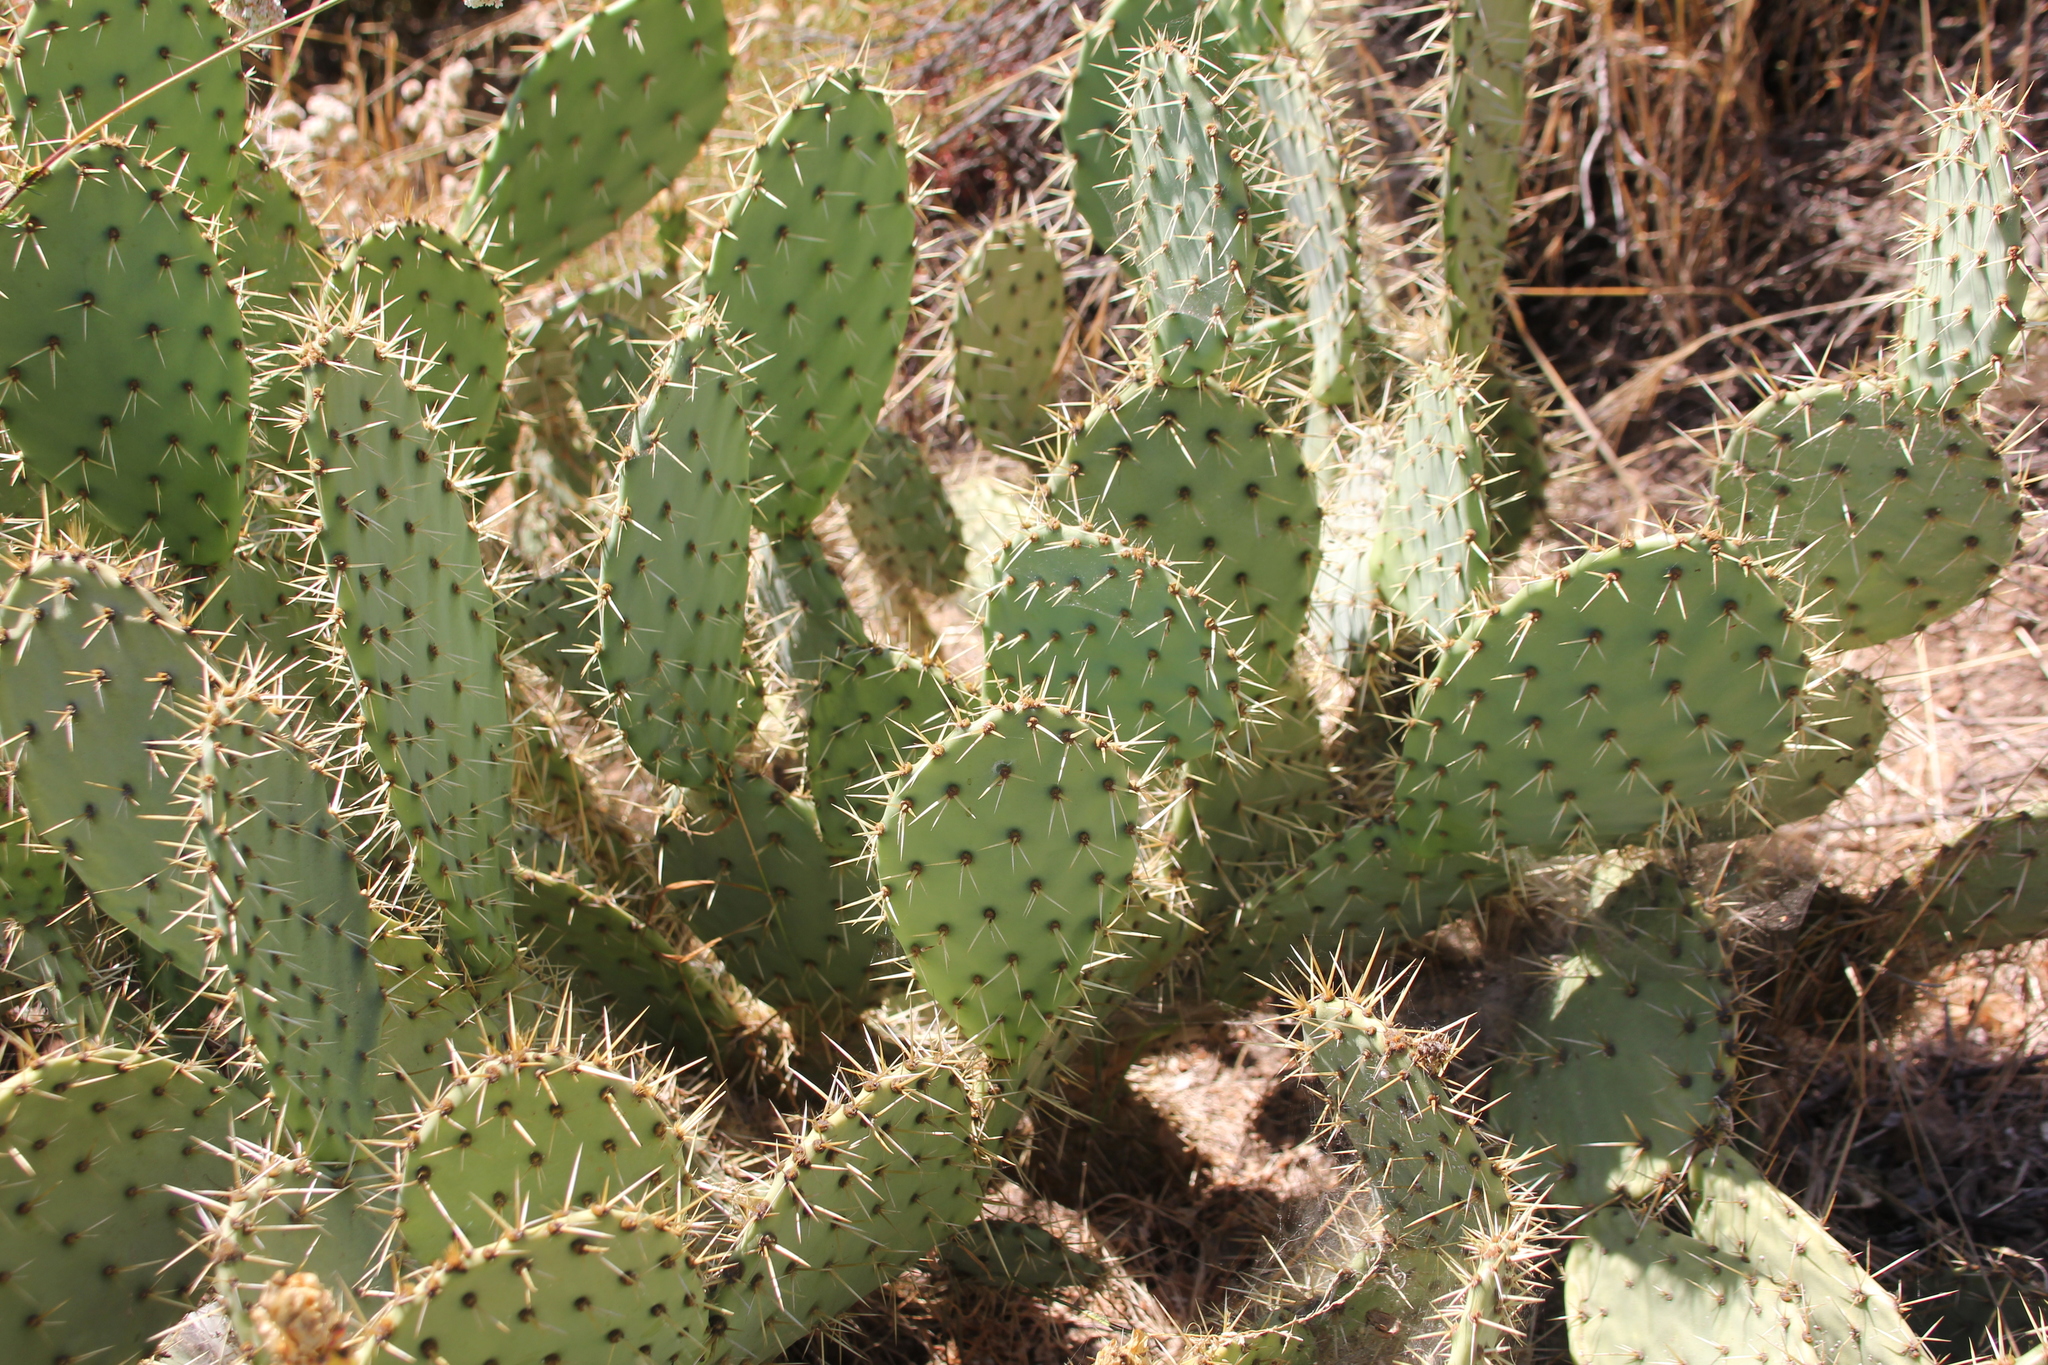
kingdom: Plantae
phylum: Tracheophyta
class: Magnoliopsida
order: Caryophyllales
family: Cactaceae
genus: Opuntia
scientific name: Opuntia littoralis
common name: Coastal prickly-pear
